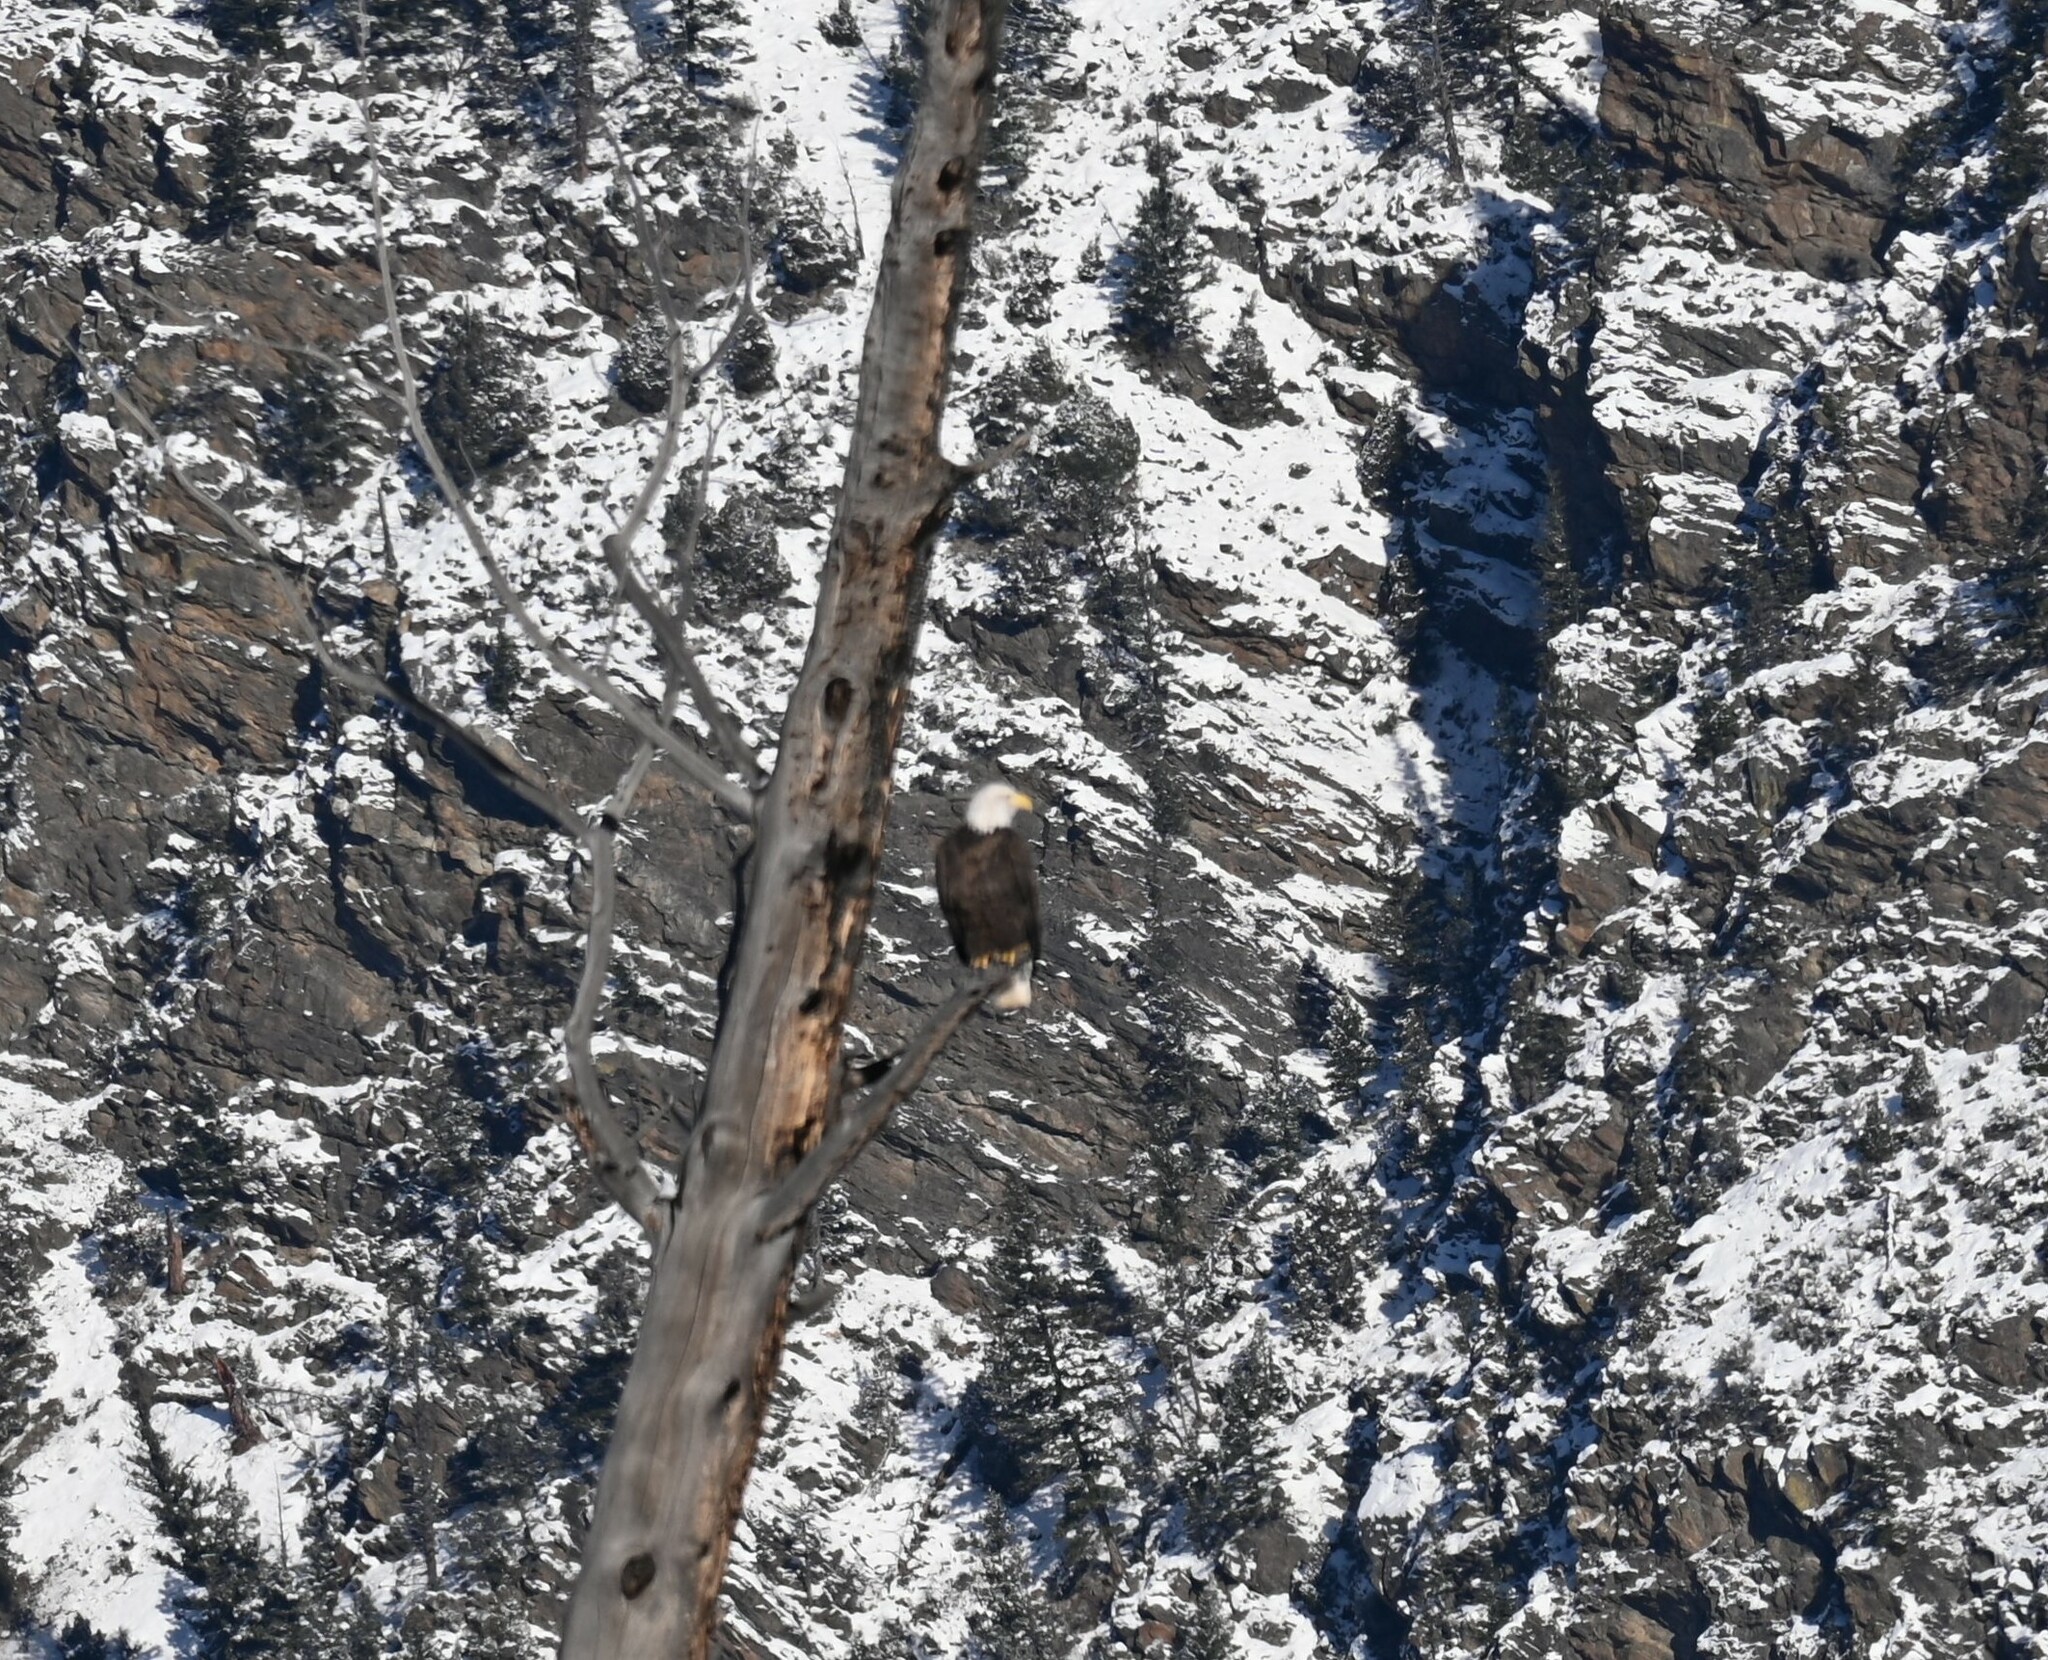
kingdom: Animalia
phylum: Chordata
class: Aves
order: Accipitriformes
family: Accipitridae
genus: Haliaeetus
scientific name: Haliaeetus leucocephalus
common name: Bald eagle
